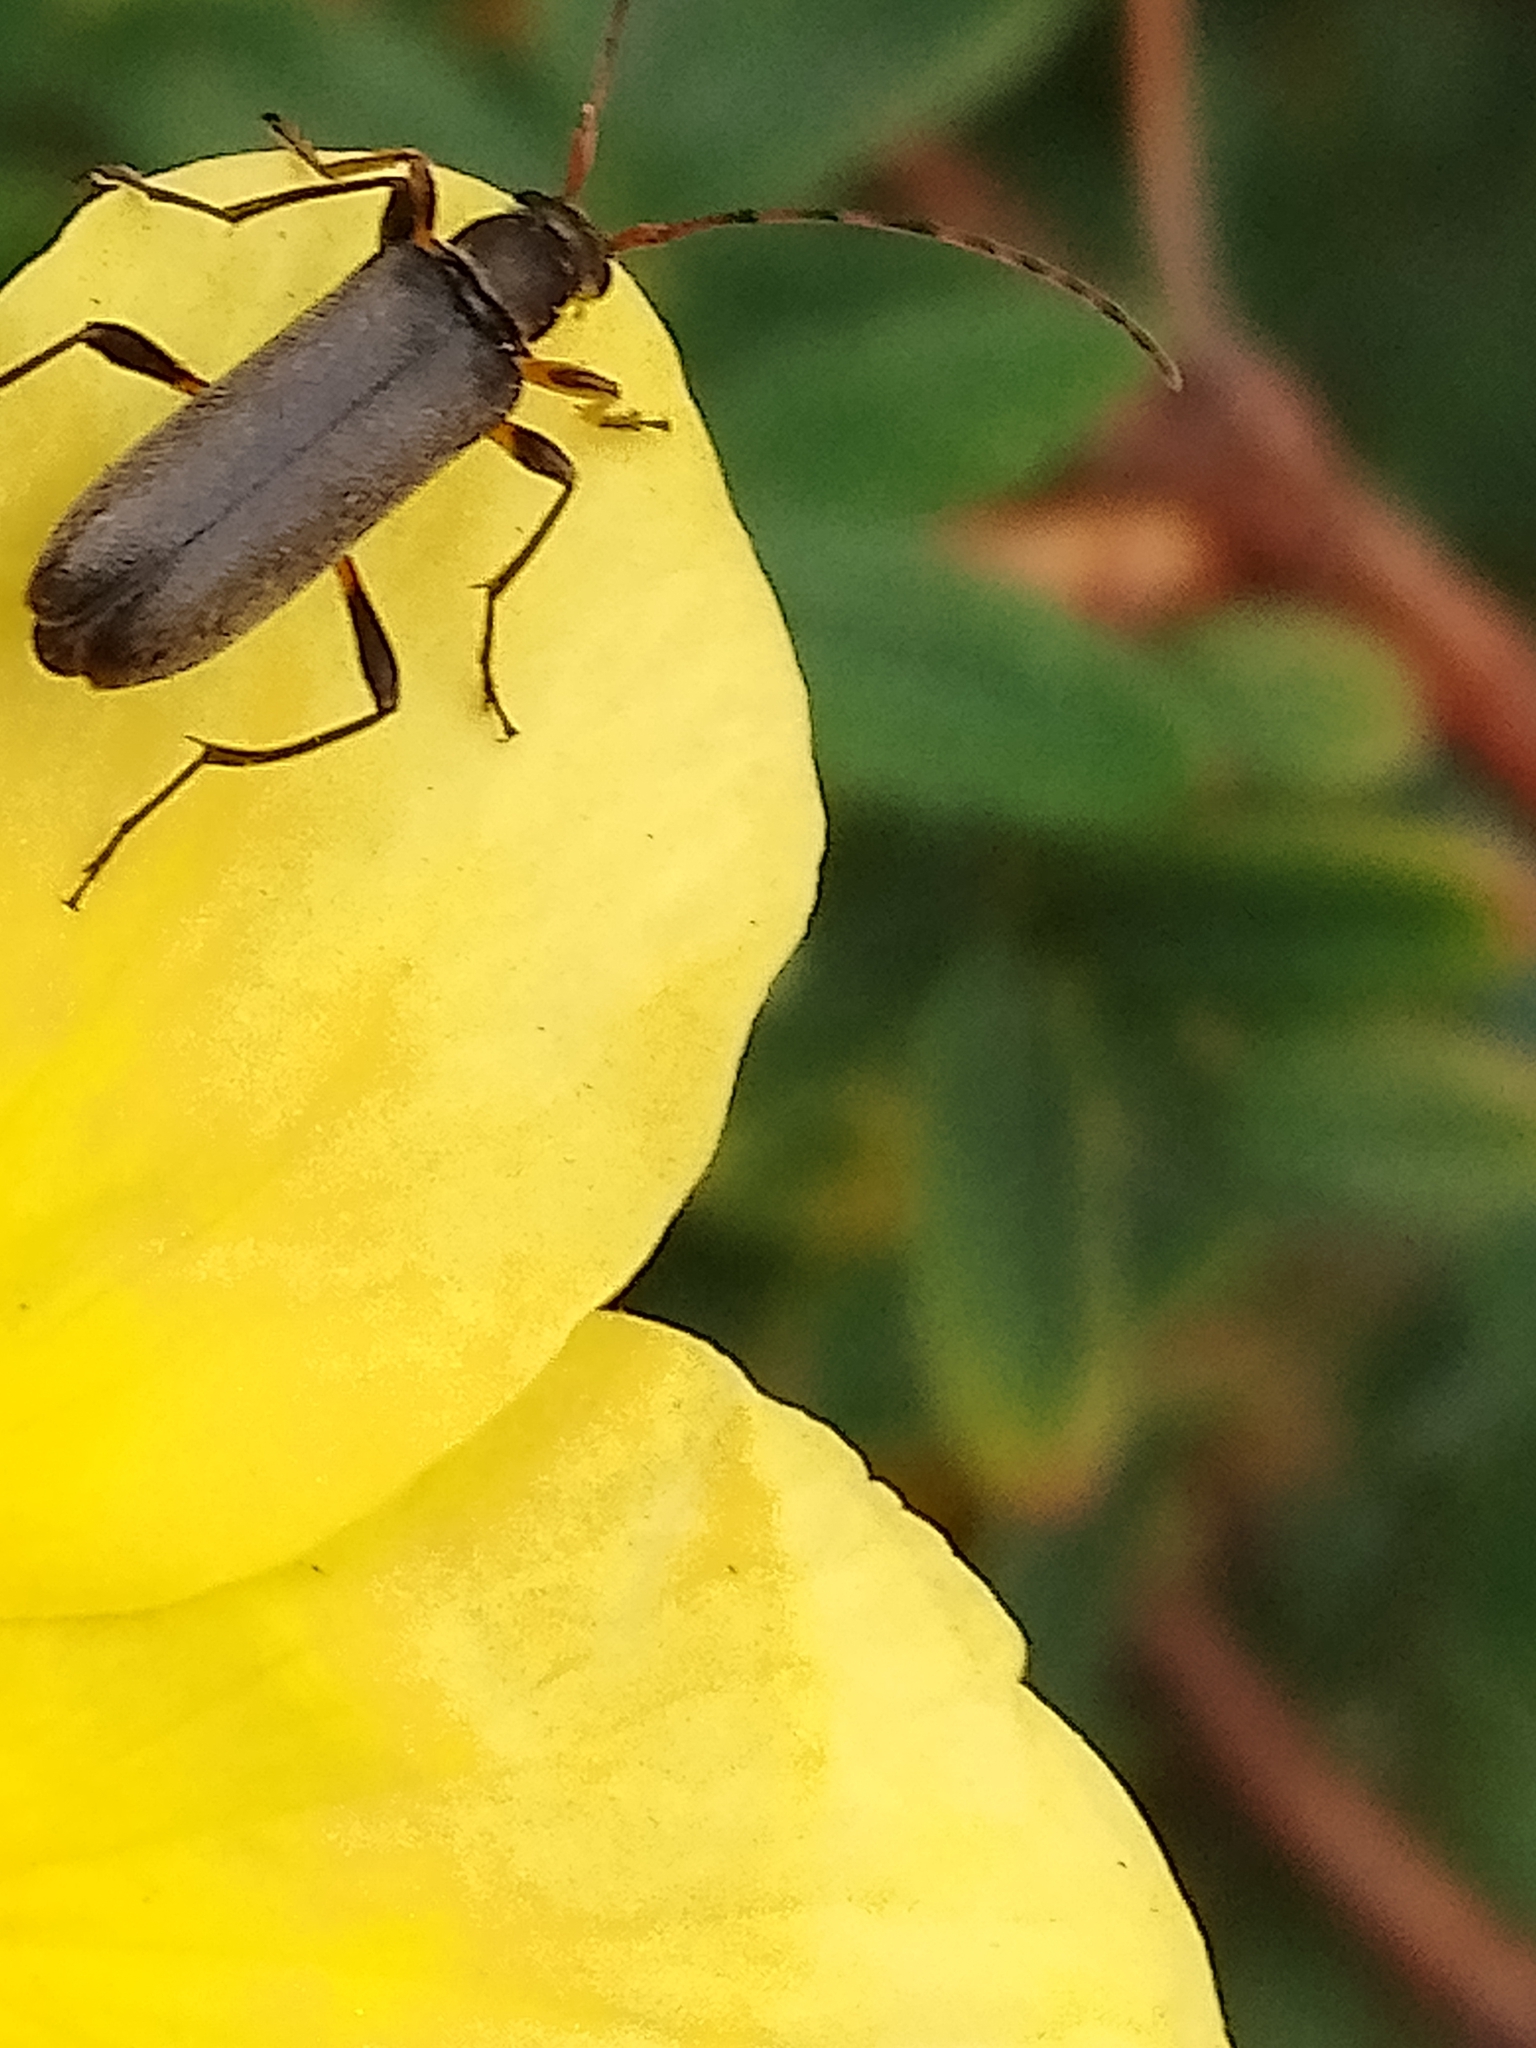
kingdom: Animalia
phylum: Arthropoda
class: Insecta
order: Coleoptera
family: Cerambycidae
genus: Grammoptera
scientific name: Grammoptera ruficornis
